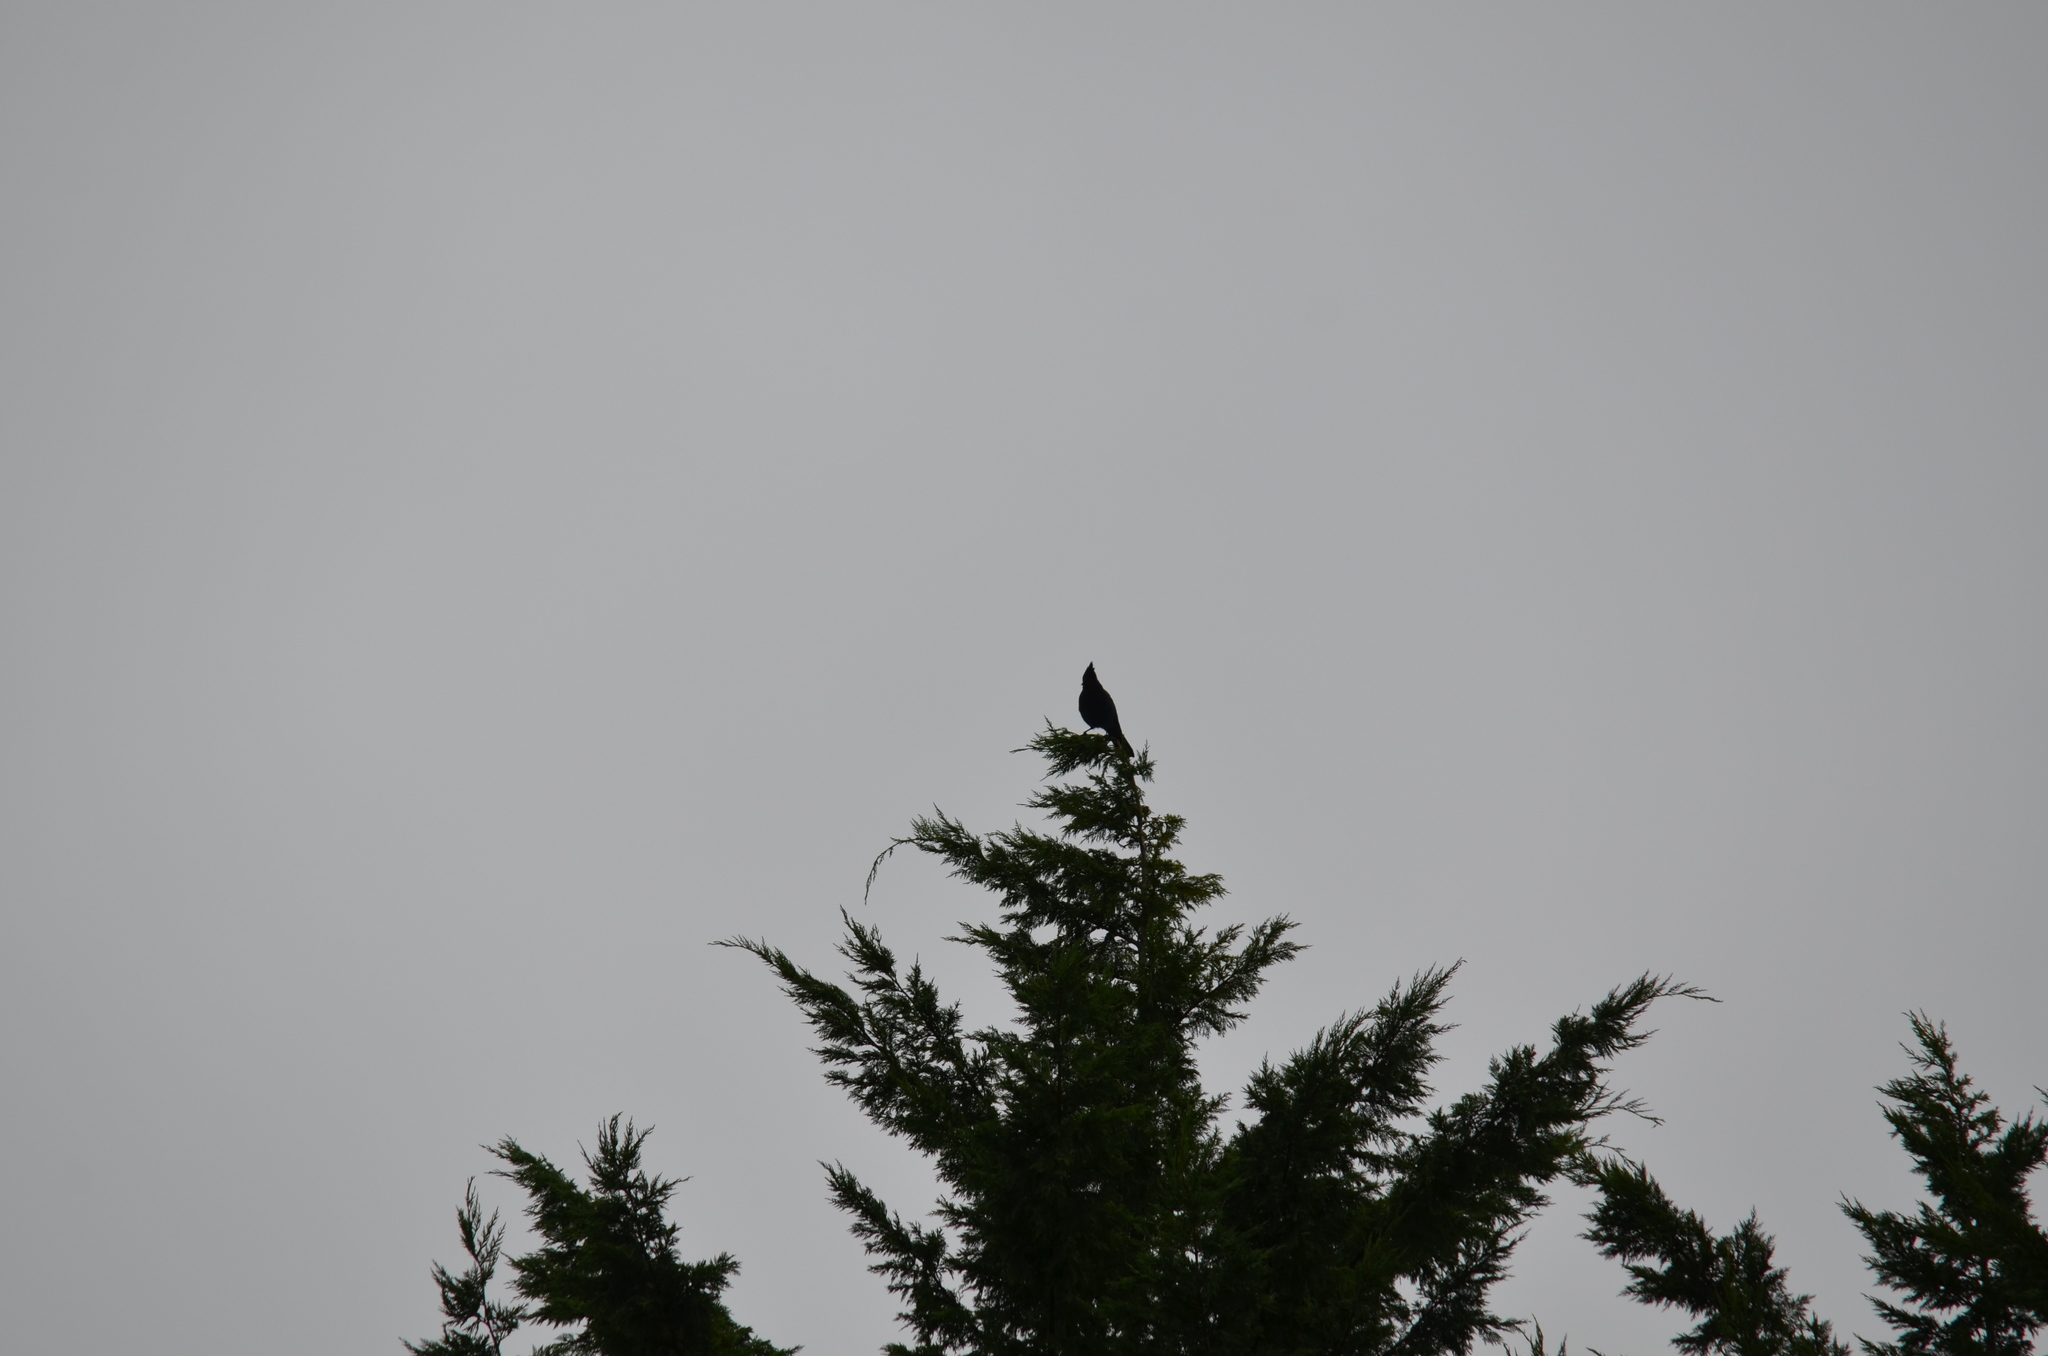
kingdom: Animalia
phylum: Chordata
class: Aves
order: Passeriformes
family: Corvidae
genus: Cyanocitta
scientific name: Cyanocitta stelleri
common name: Steller's jay
